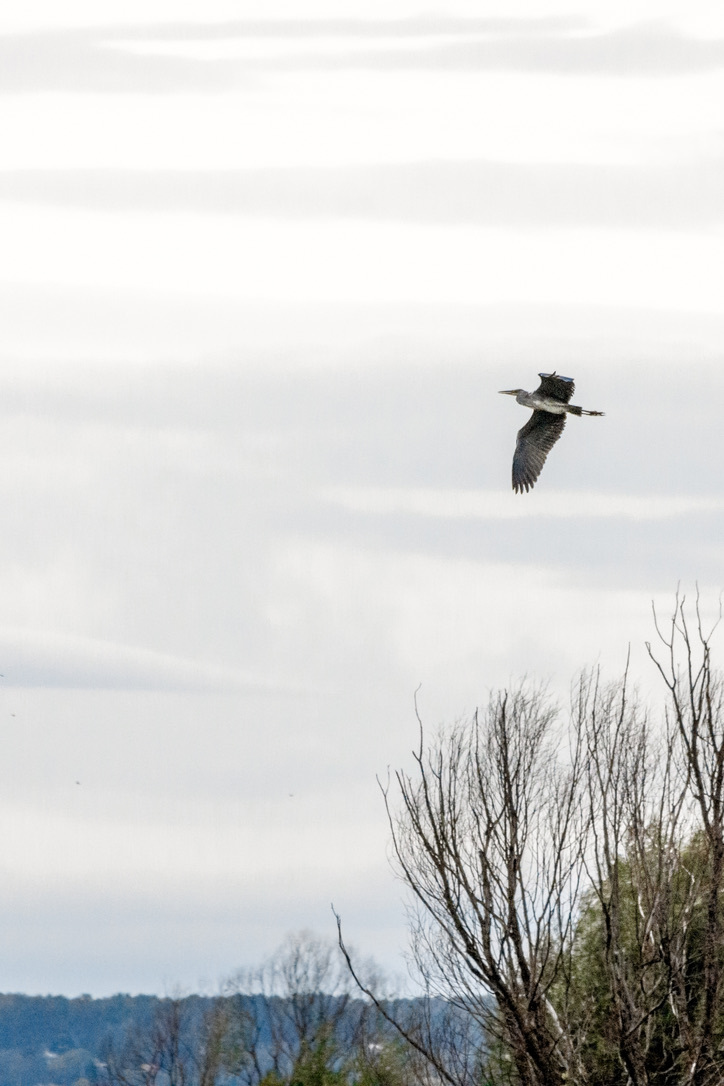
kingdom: Animalia
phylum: Chordata
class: Aves
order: Pelecaniformes
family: Ardeidae
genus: Ardea
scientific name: Ardea cinerea
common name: Grey heron
